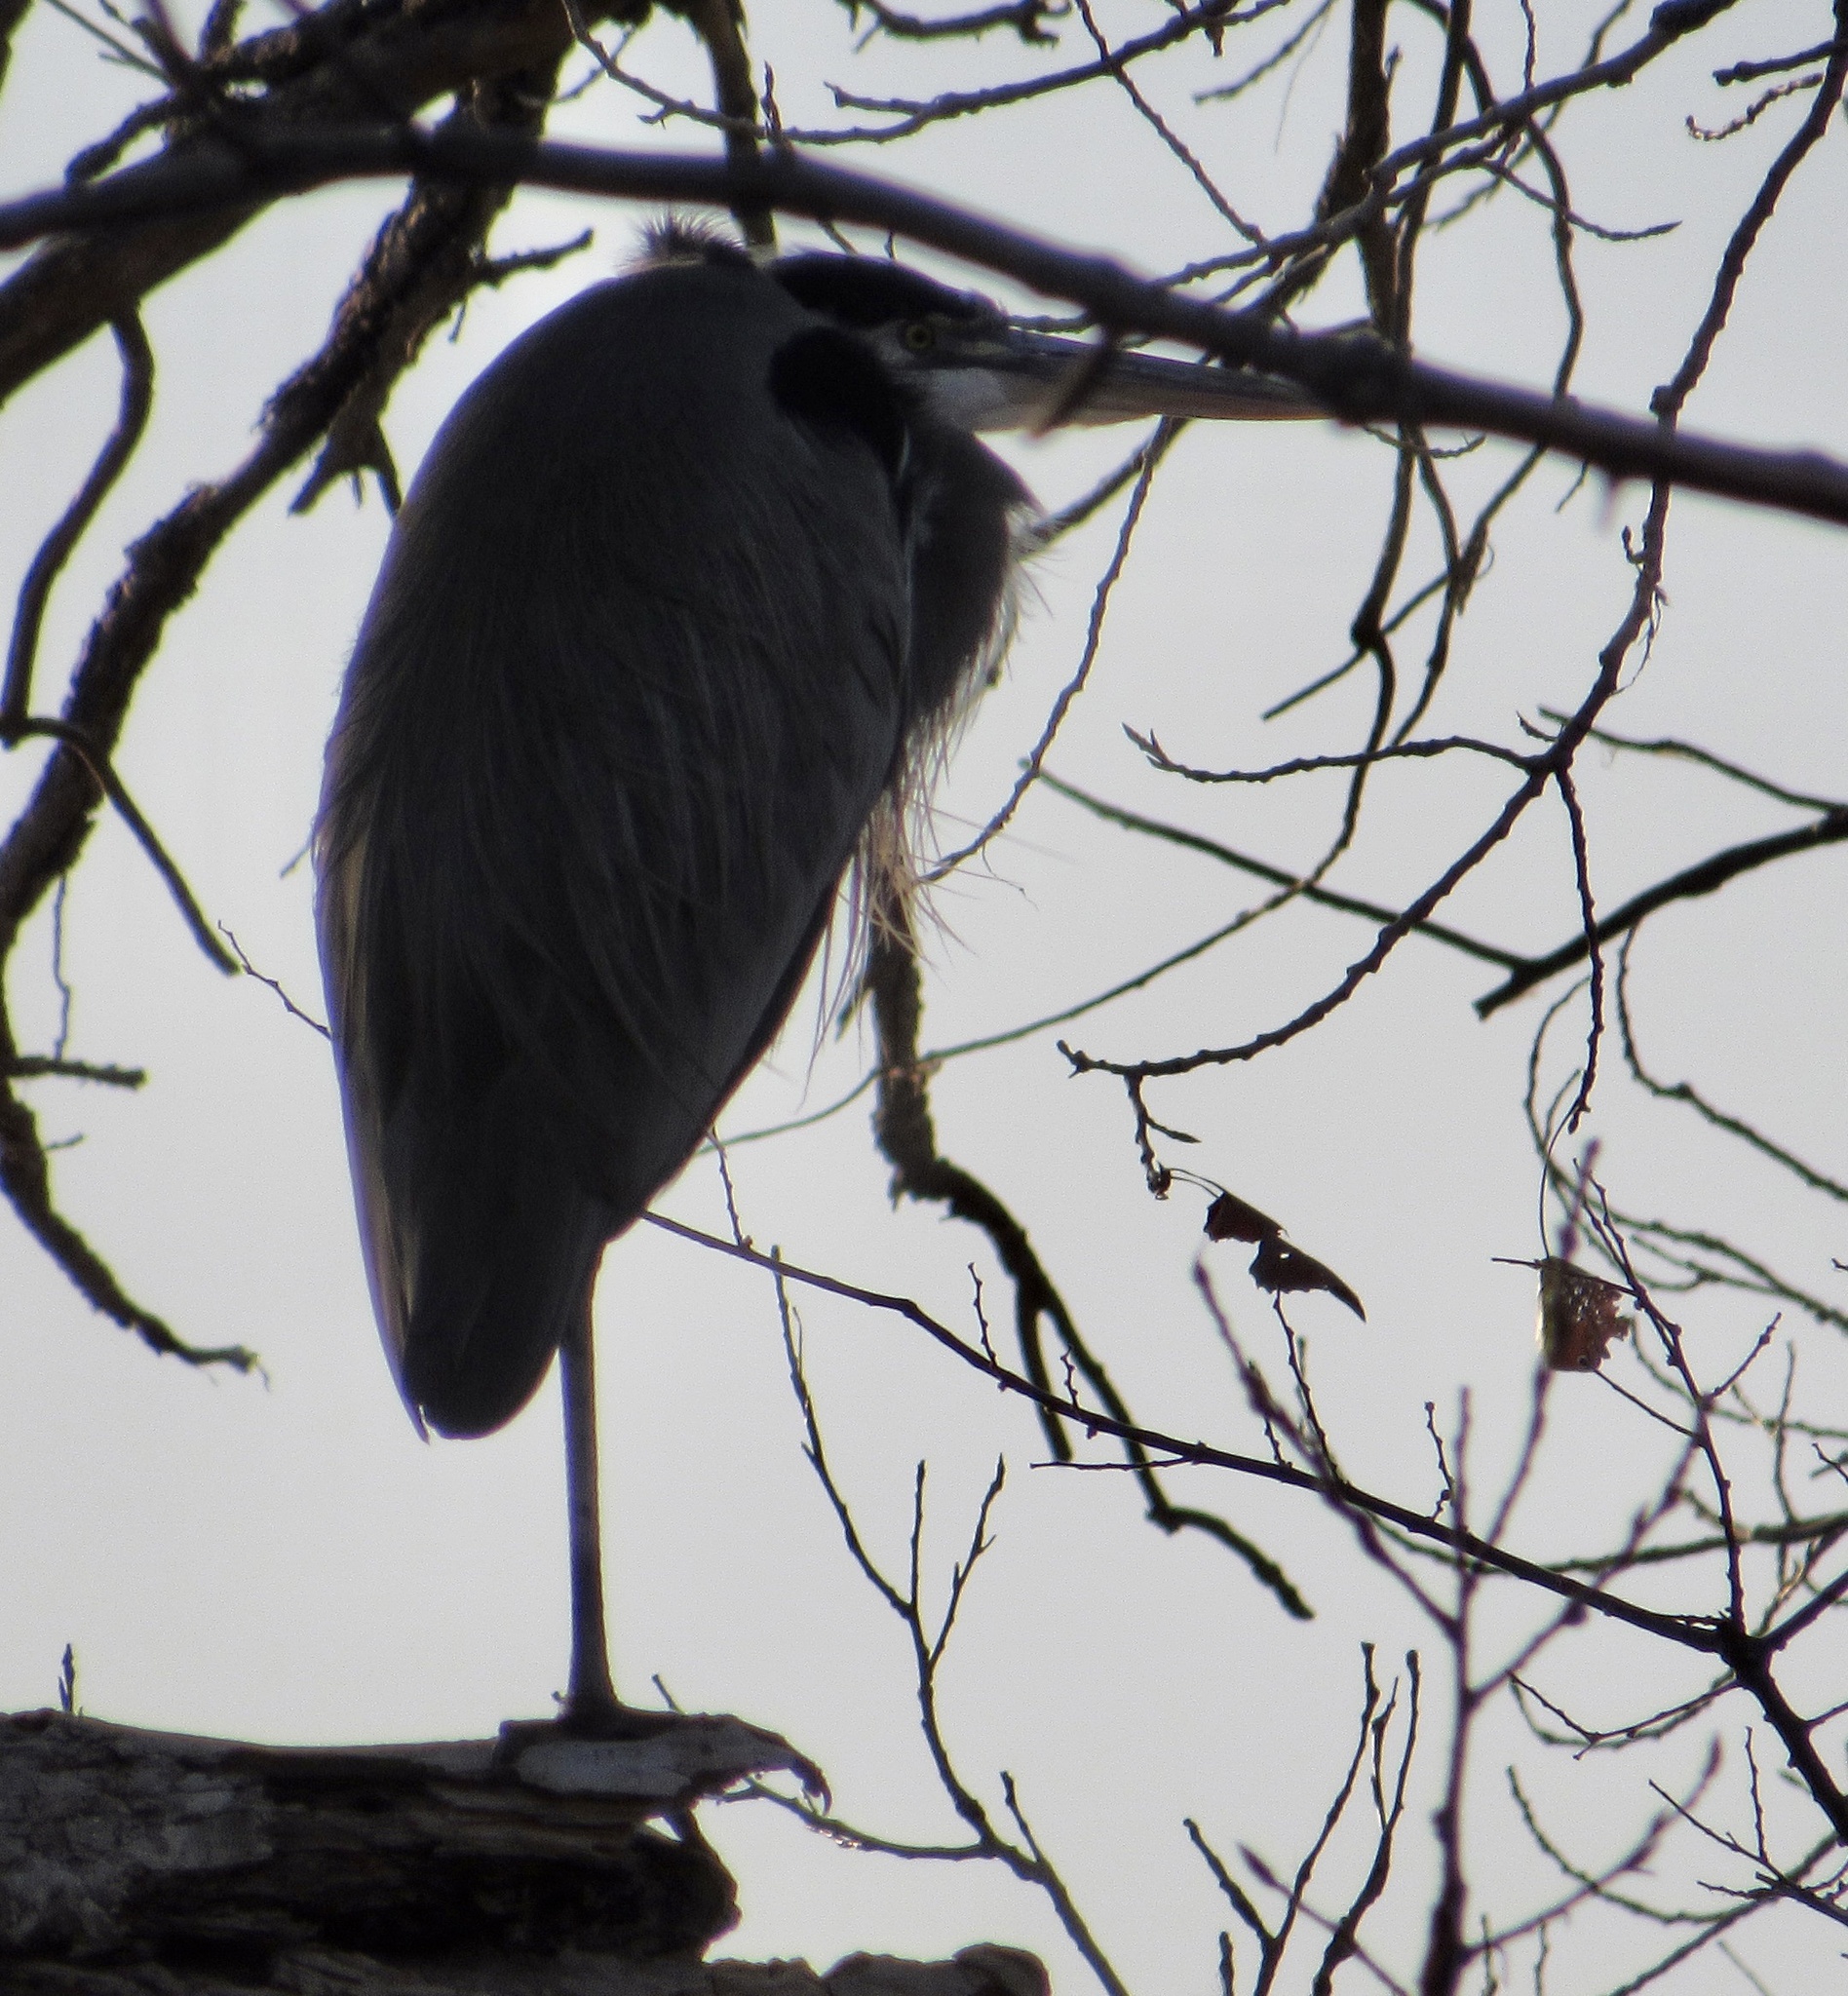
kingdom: Animalia
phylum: Chordata
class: Aves
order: Pelecaniformes
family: Ardeidae
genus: Ardea
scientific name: Ardea herodias
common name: Great blue heron
